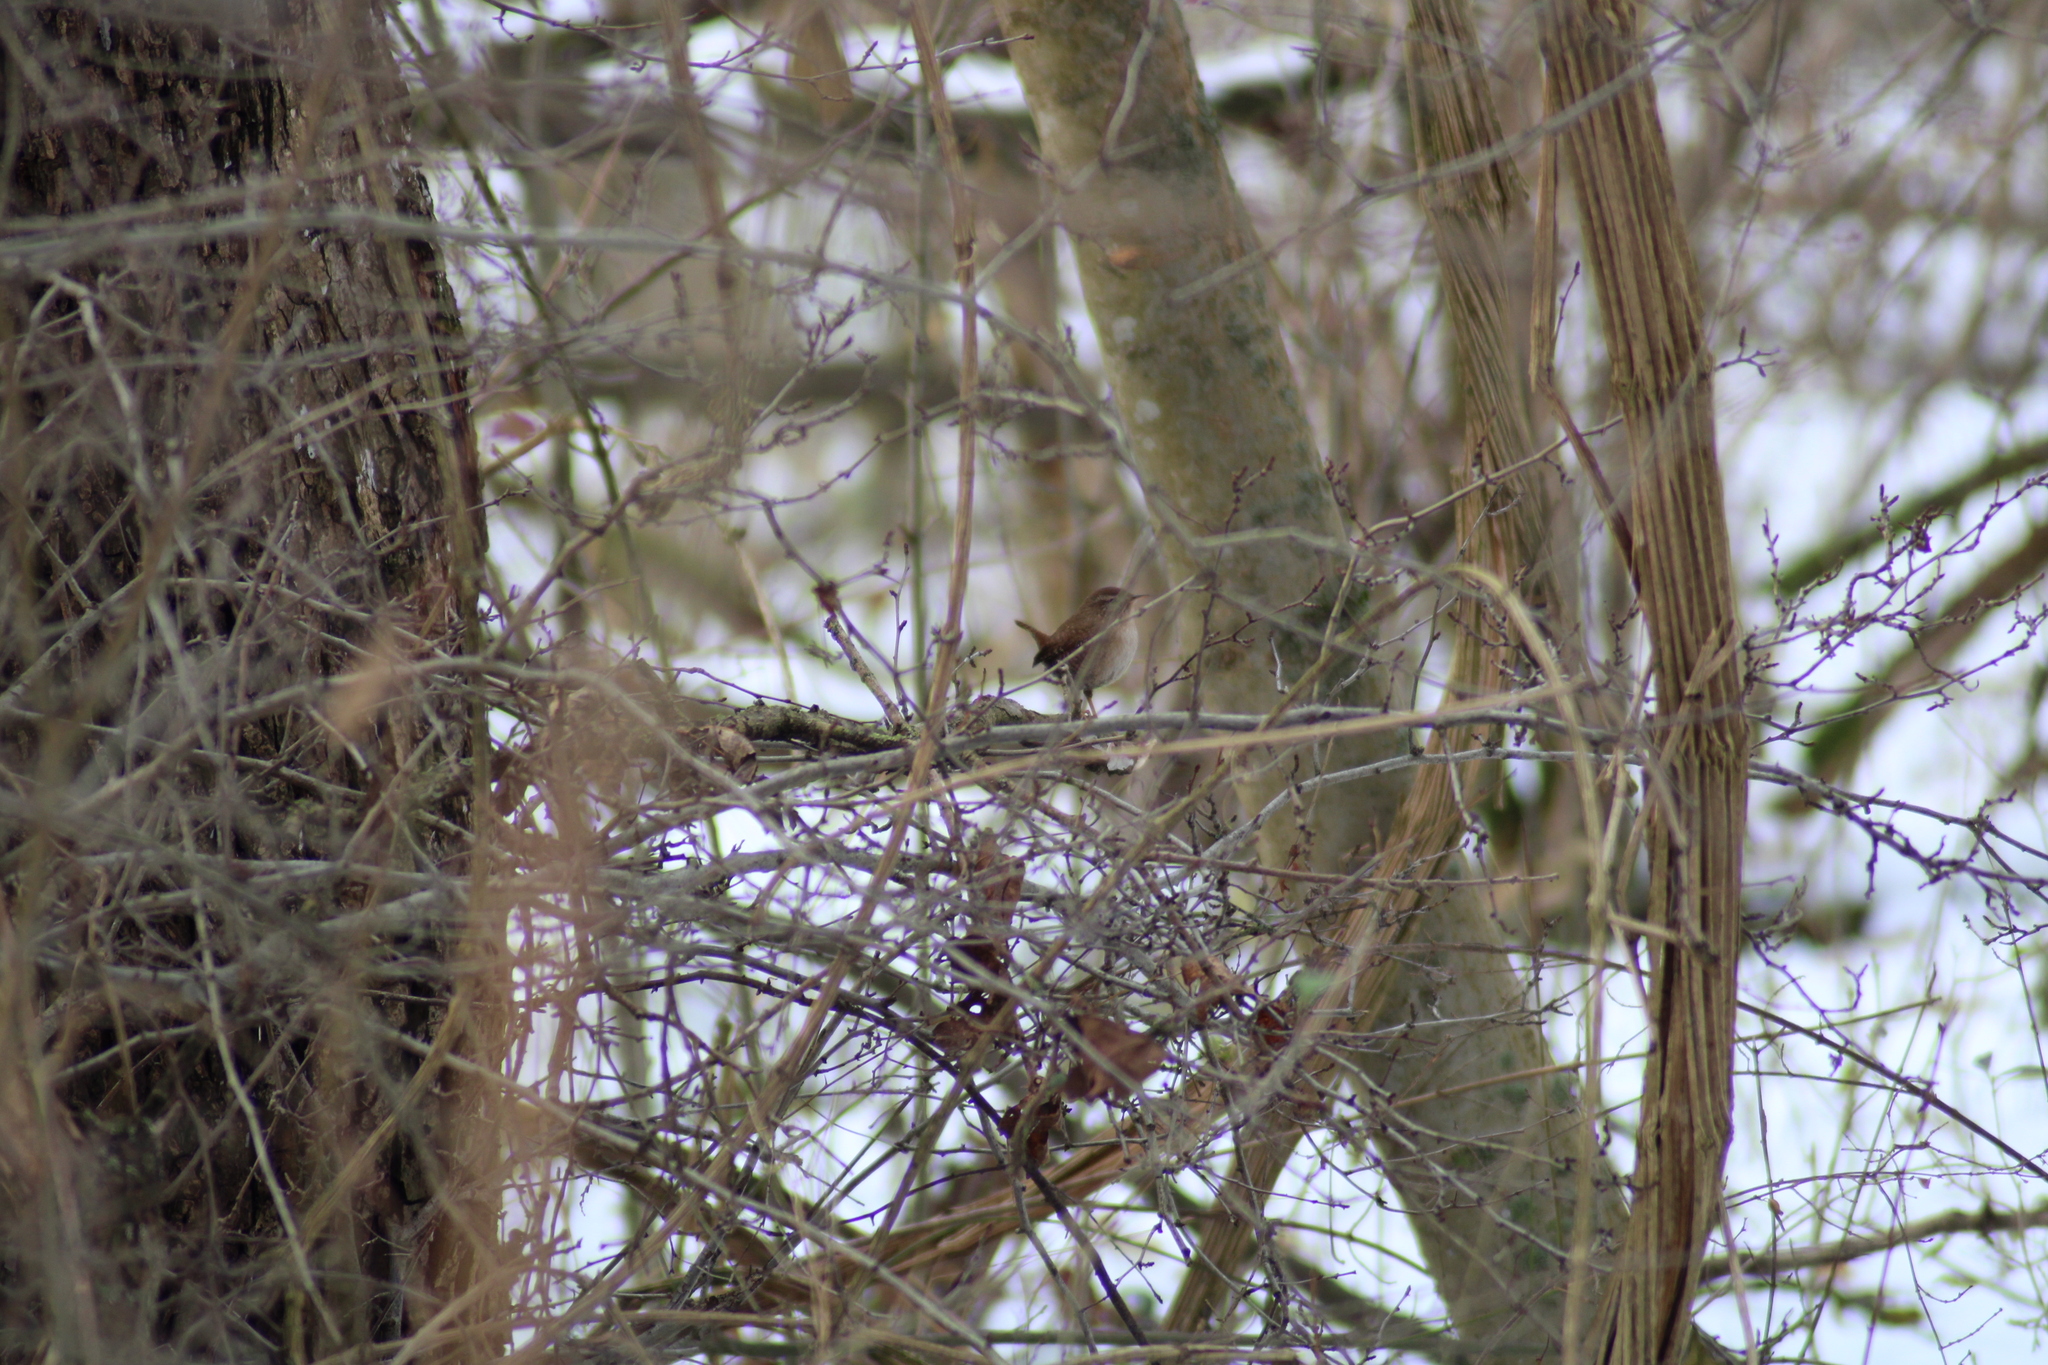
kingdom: Animalia
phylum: Chordata
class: Aves
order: Passeriformes
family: Troglodytidae
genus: Troglodytes
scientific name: Troglodytes troglodytes
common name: Eurasian wren
